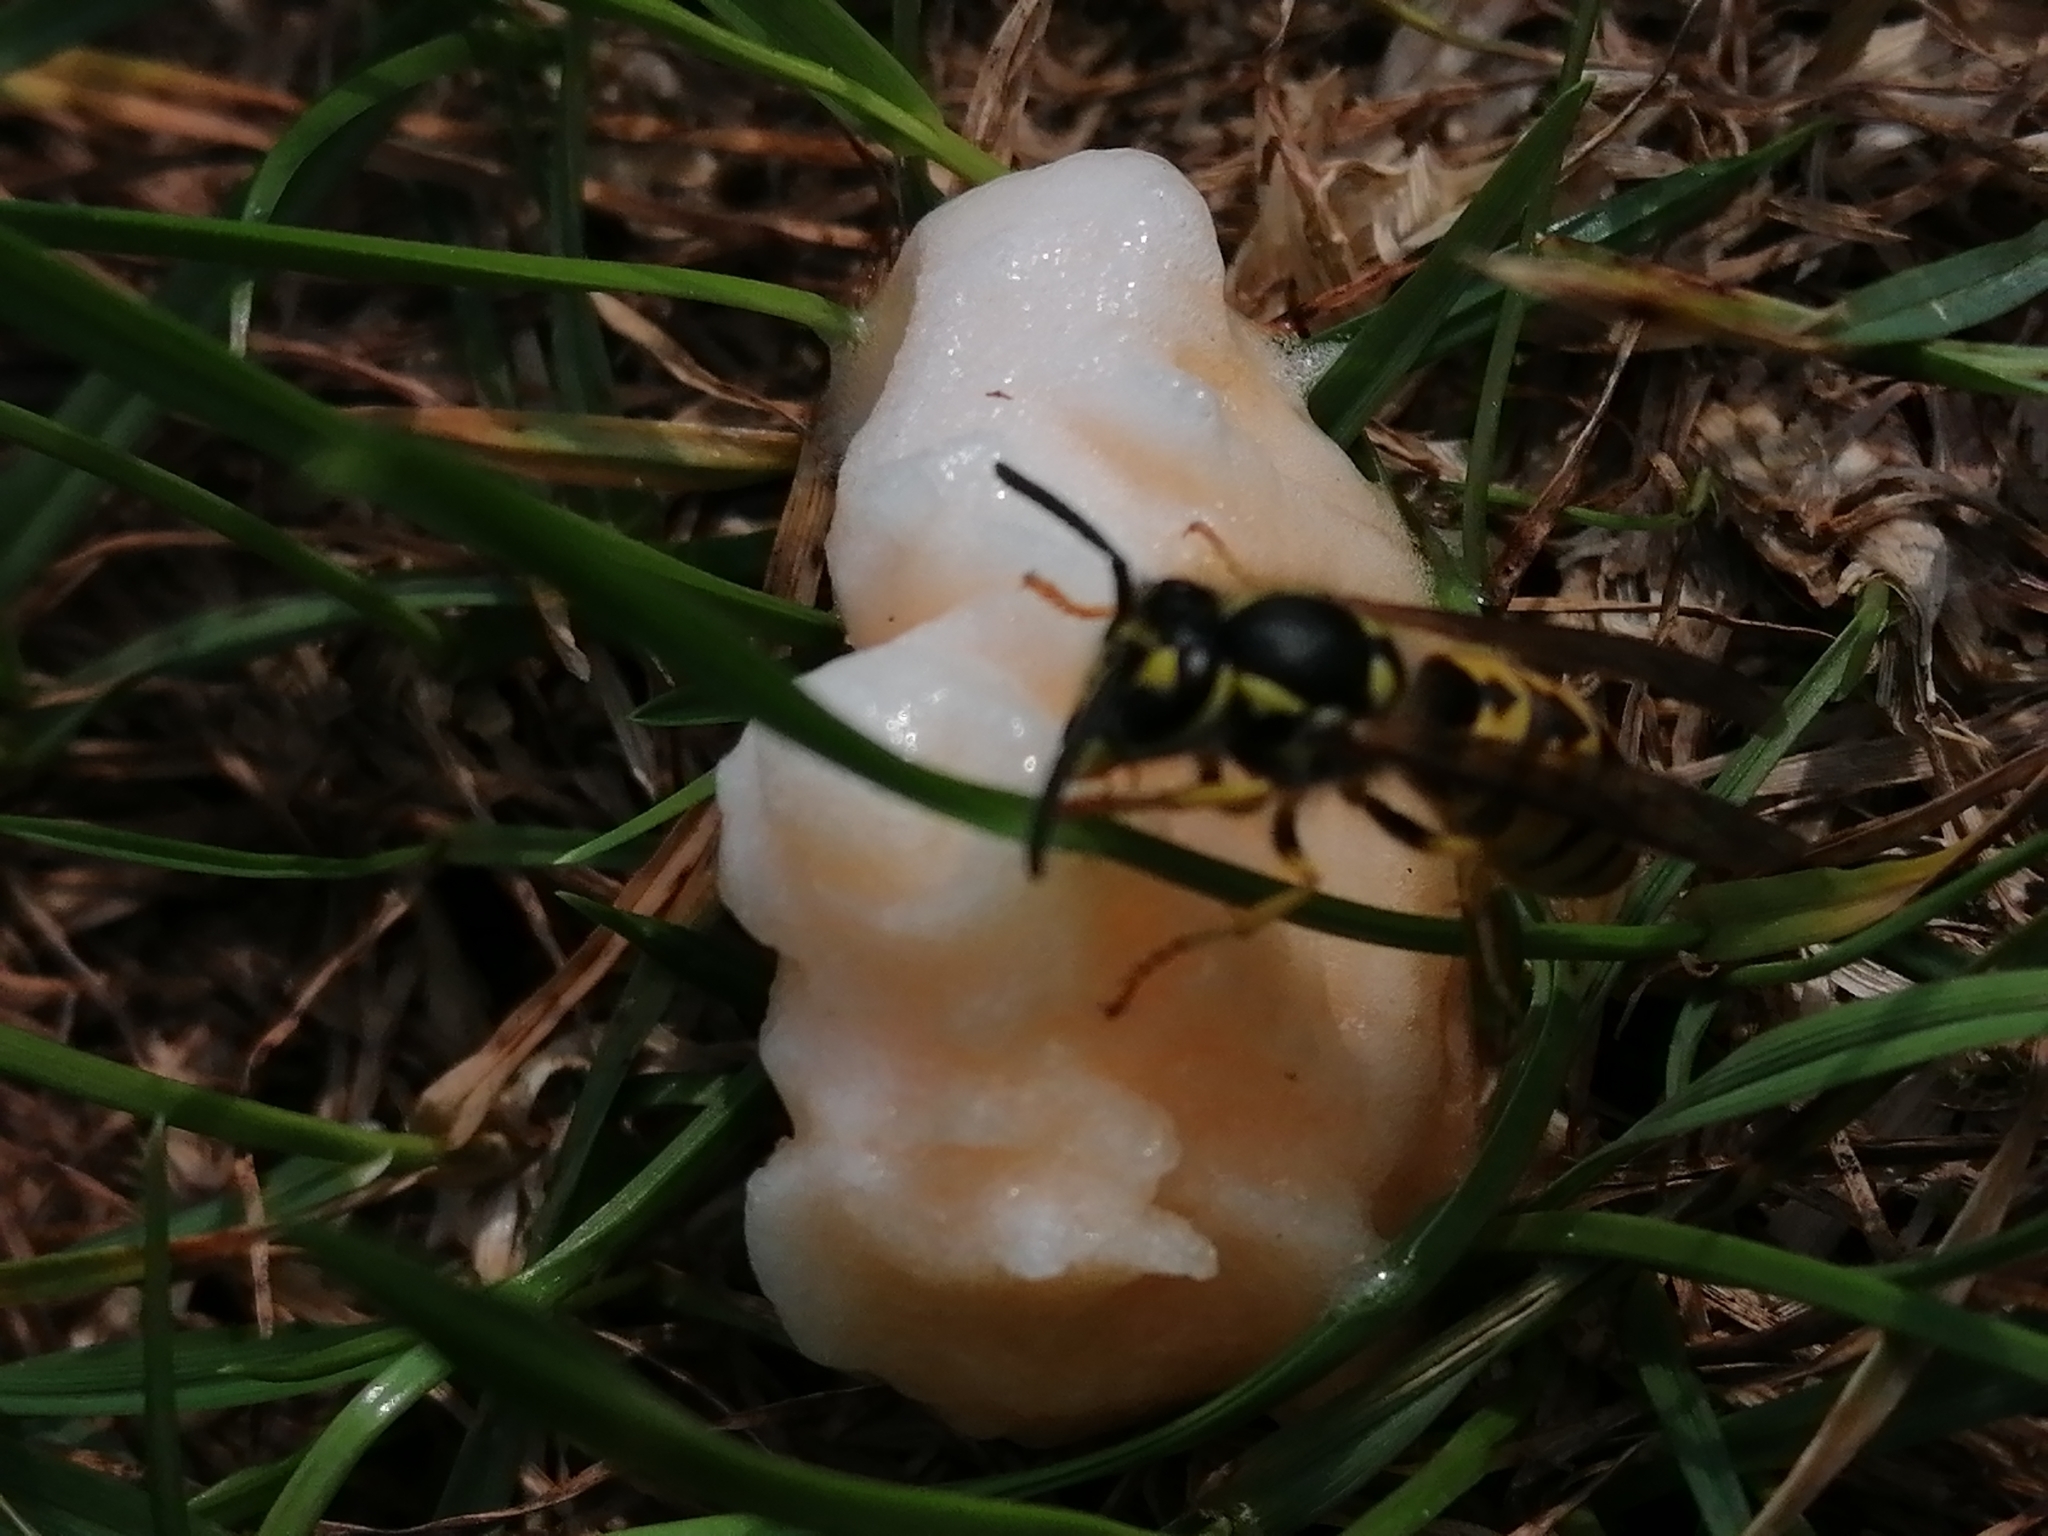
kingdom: Animalia
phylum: Arthropoda
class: Insecta
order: Hymenoptera
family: Vespidae
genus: Vespula
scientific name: Vespula germanica
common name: German wasp
